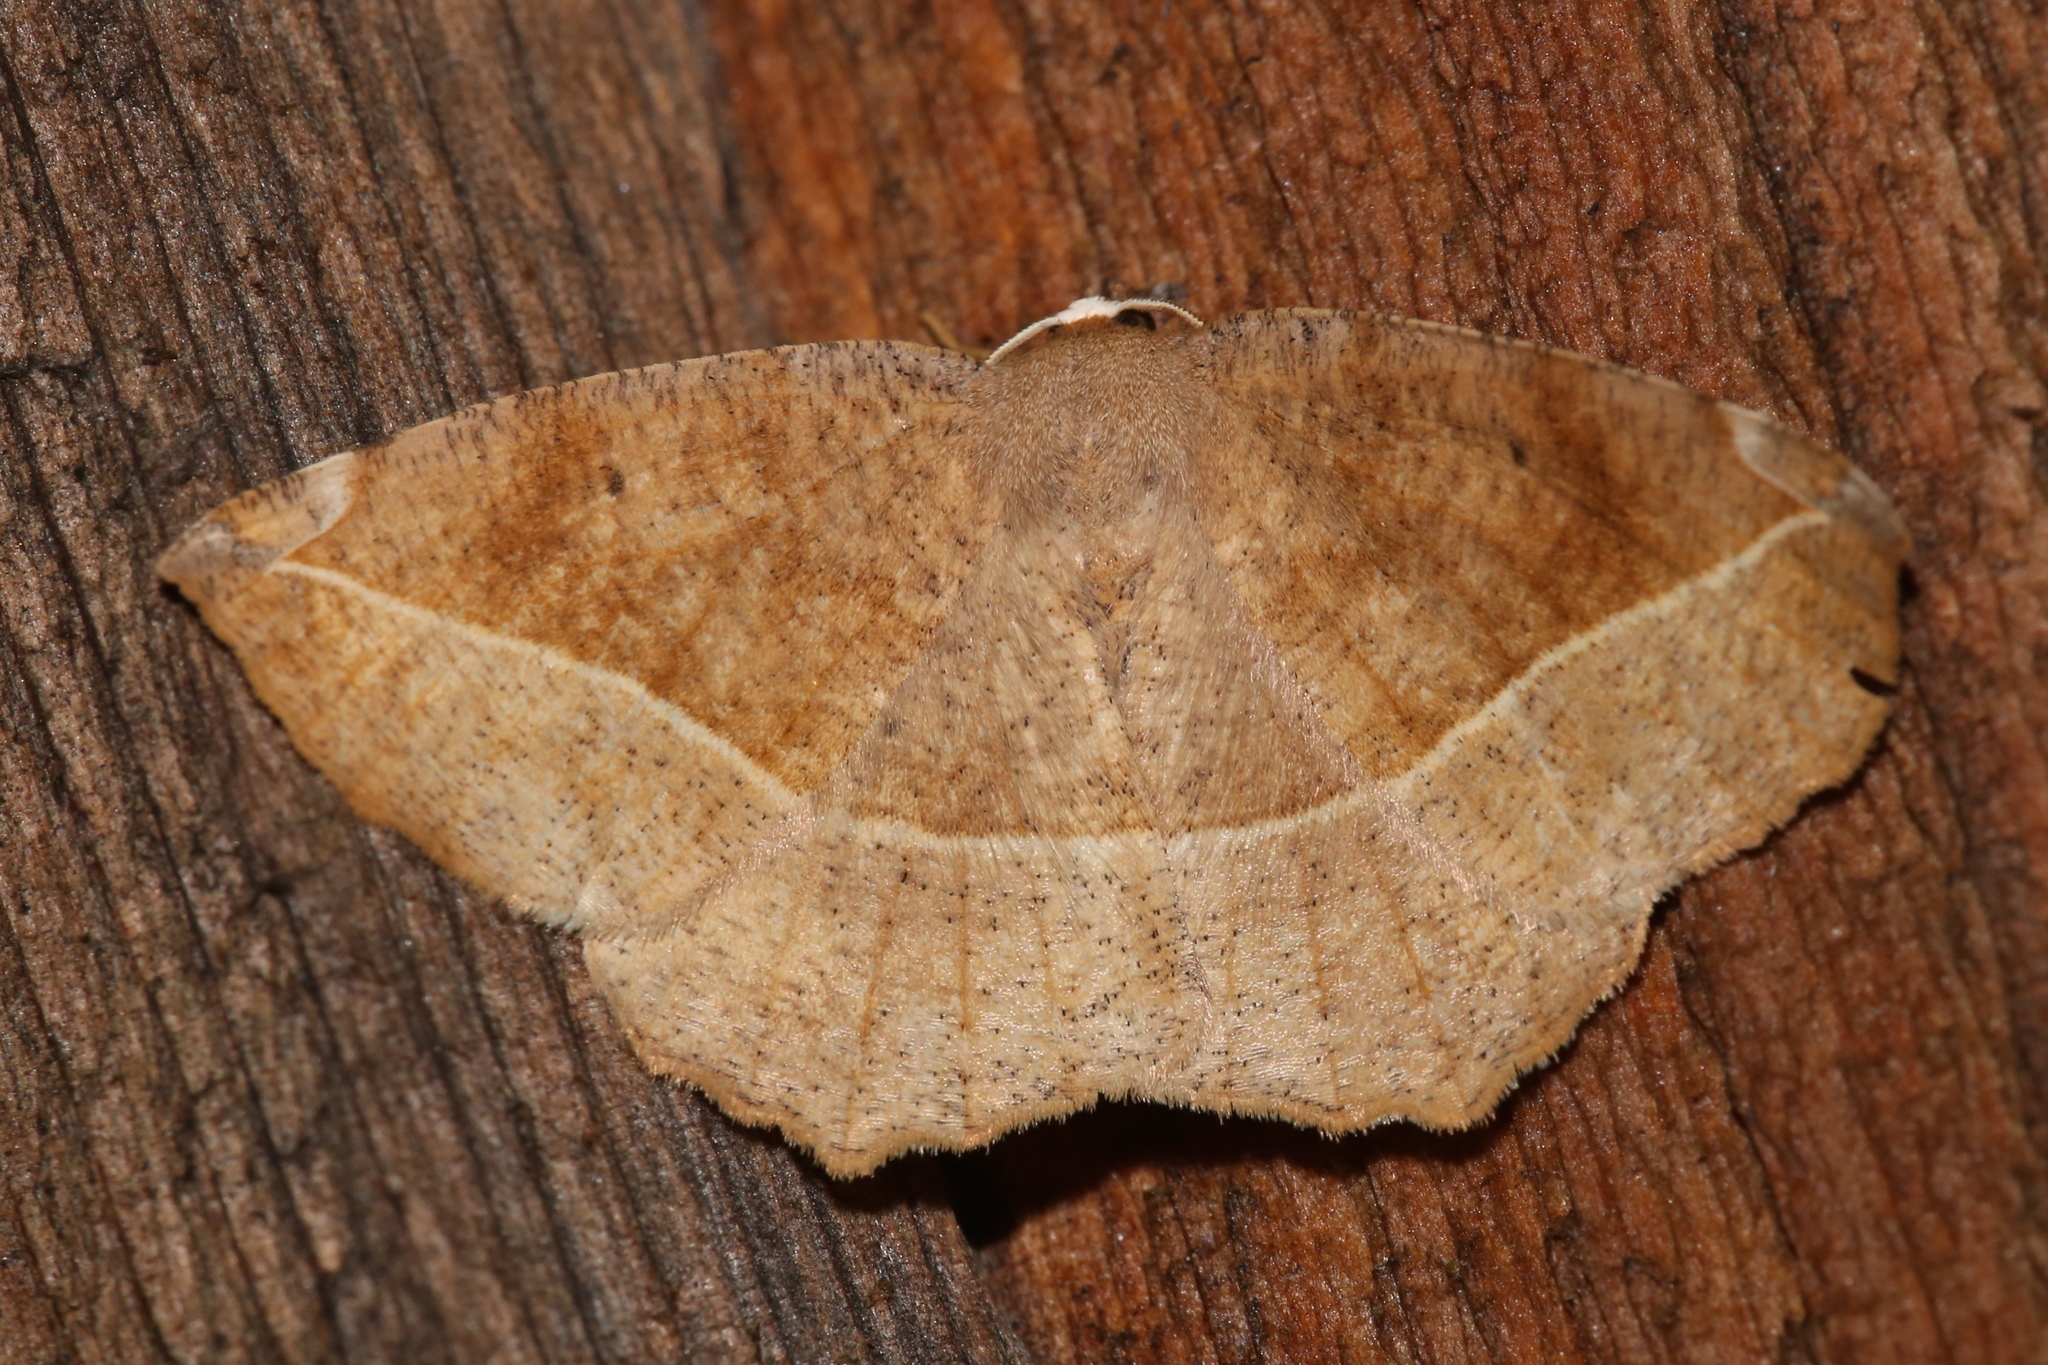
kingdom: Animalia
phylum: Arthropoda
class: Insecta
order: Lepidoptera
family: Geometridae
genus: Eutrapela
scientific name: Eutrapela clemataria
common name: Curved-toothed geometer
